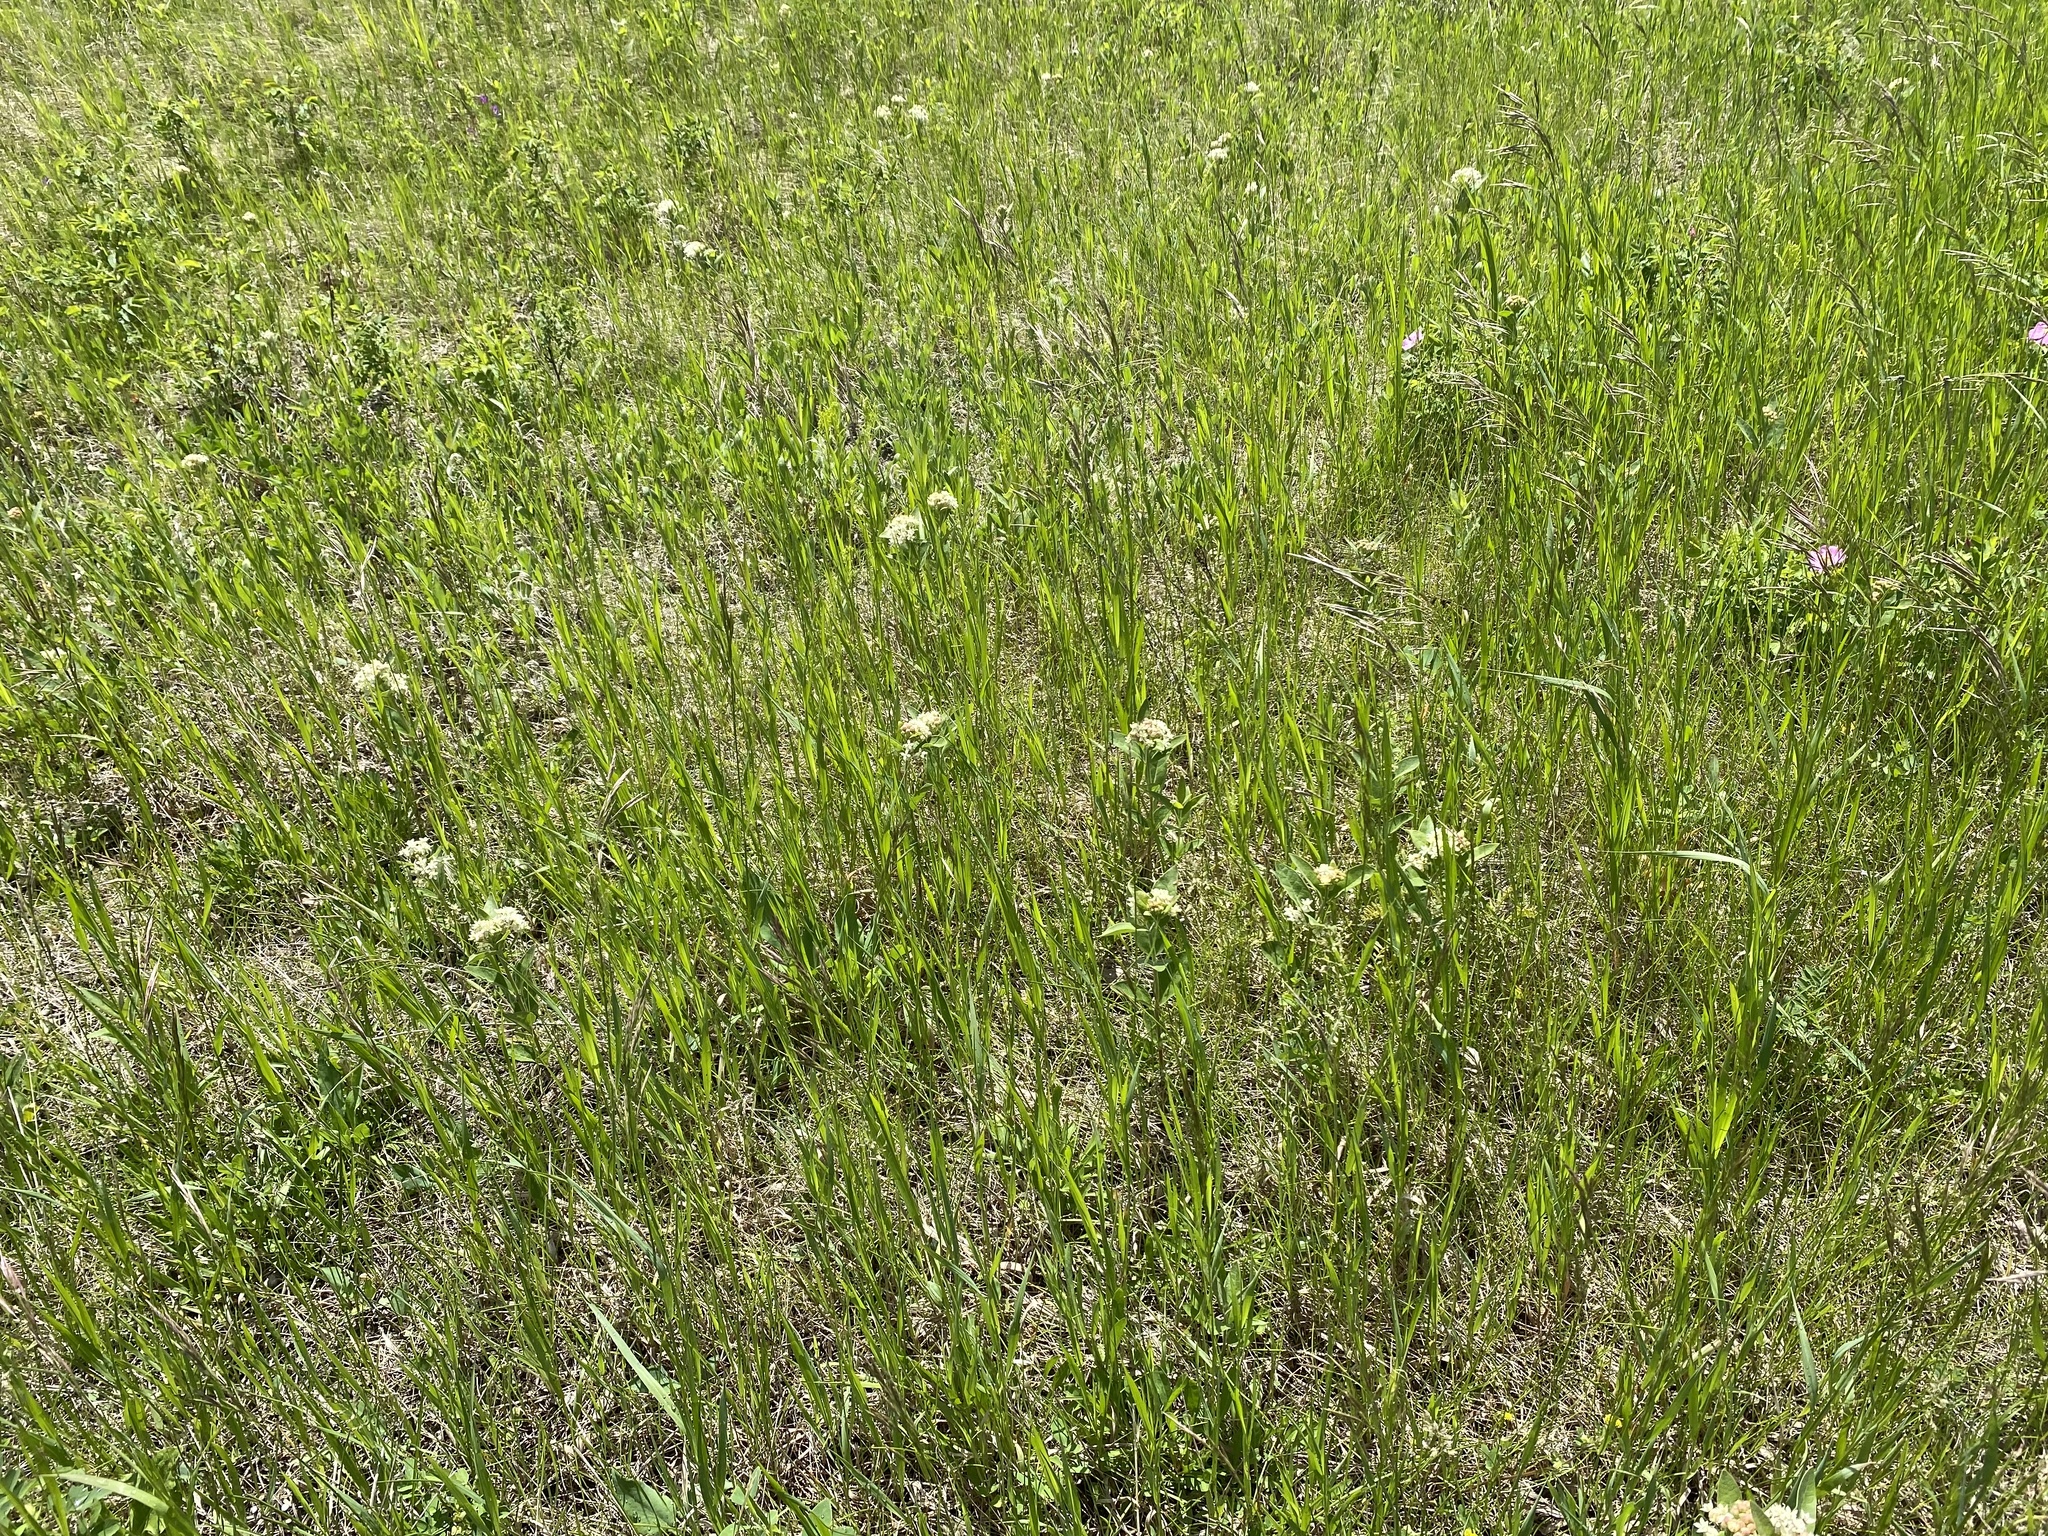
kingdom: Plantae
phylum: Tracheophyta
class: Magnoliopsida
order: Gentianales
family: Apocynaceae
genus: Asclepias
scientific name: Asclepias ovalifolia
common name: Dwarf milkweed
